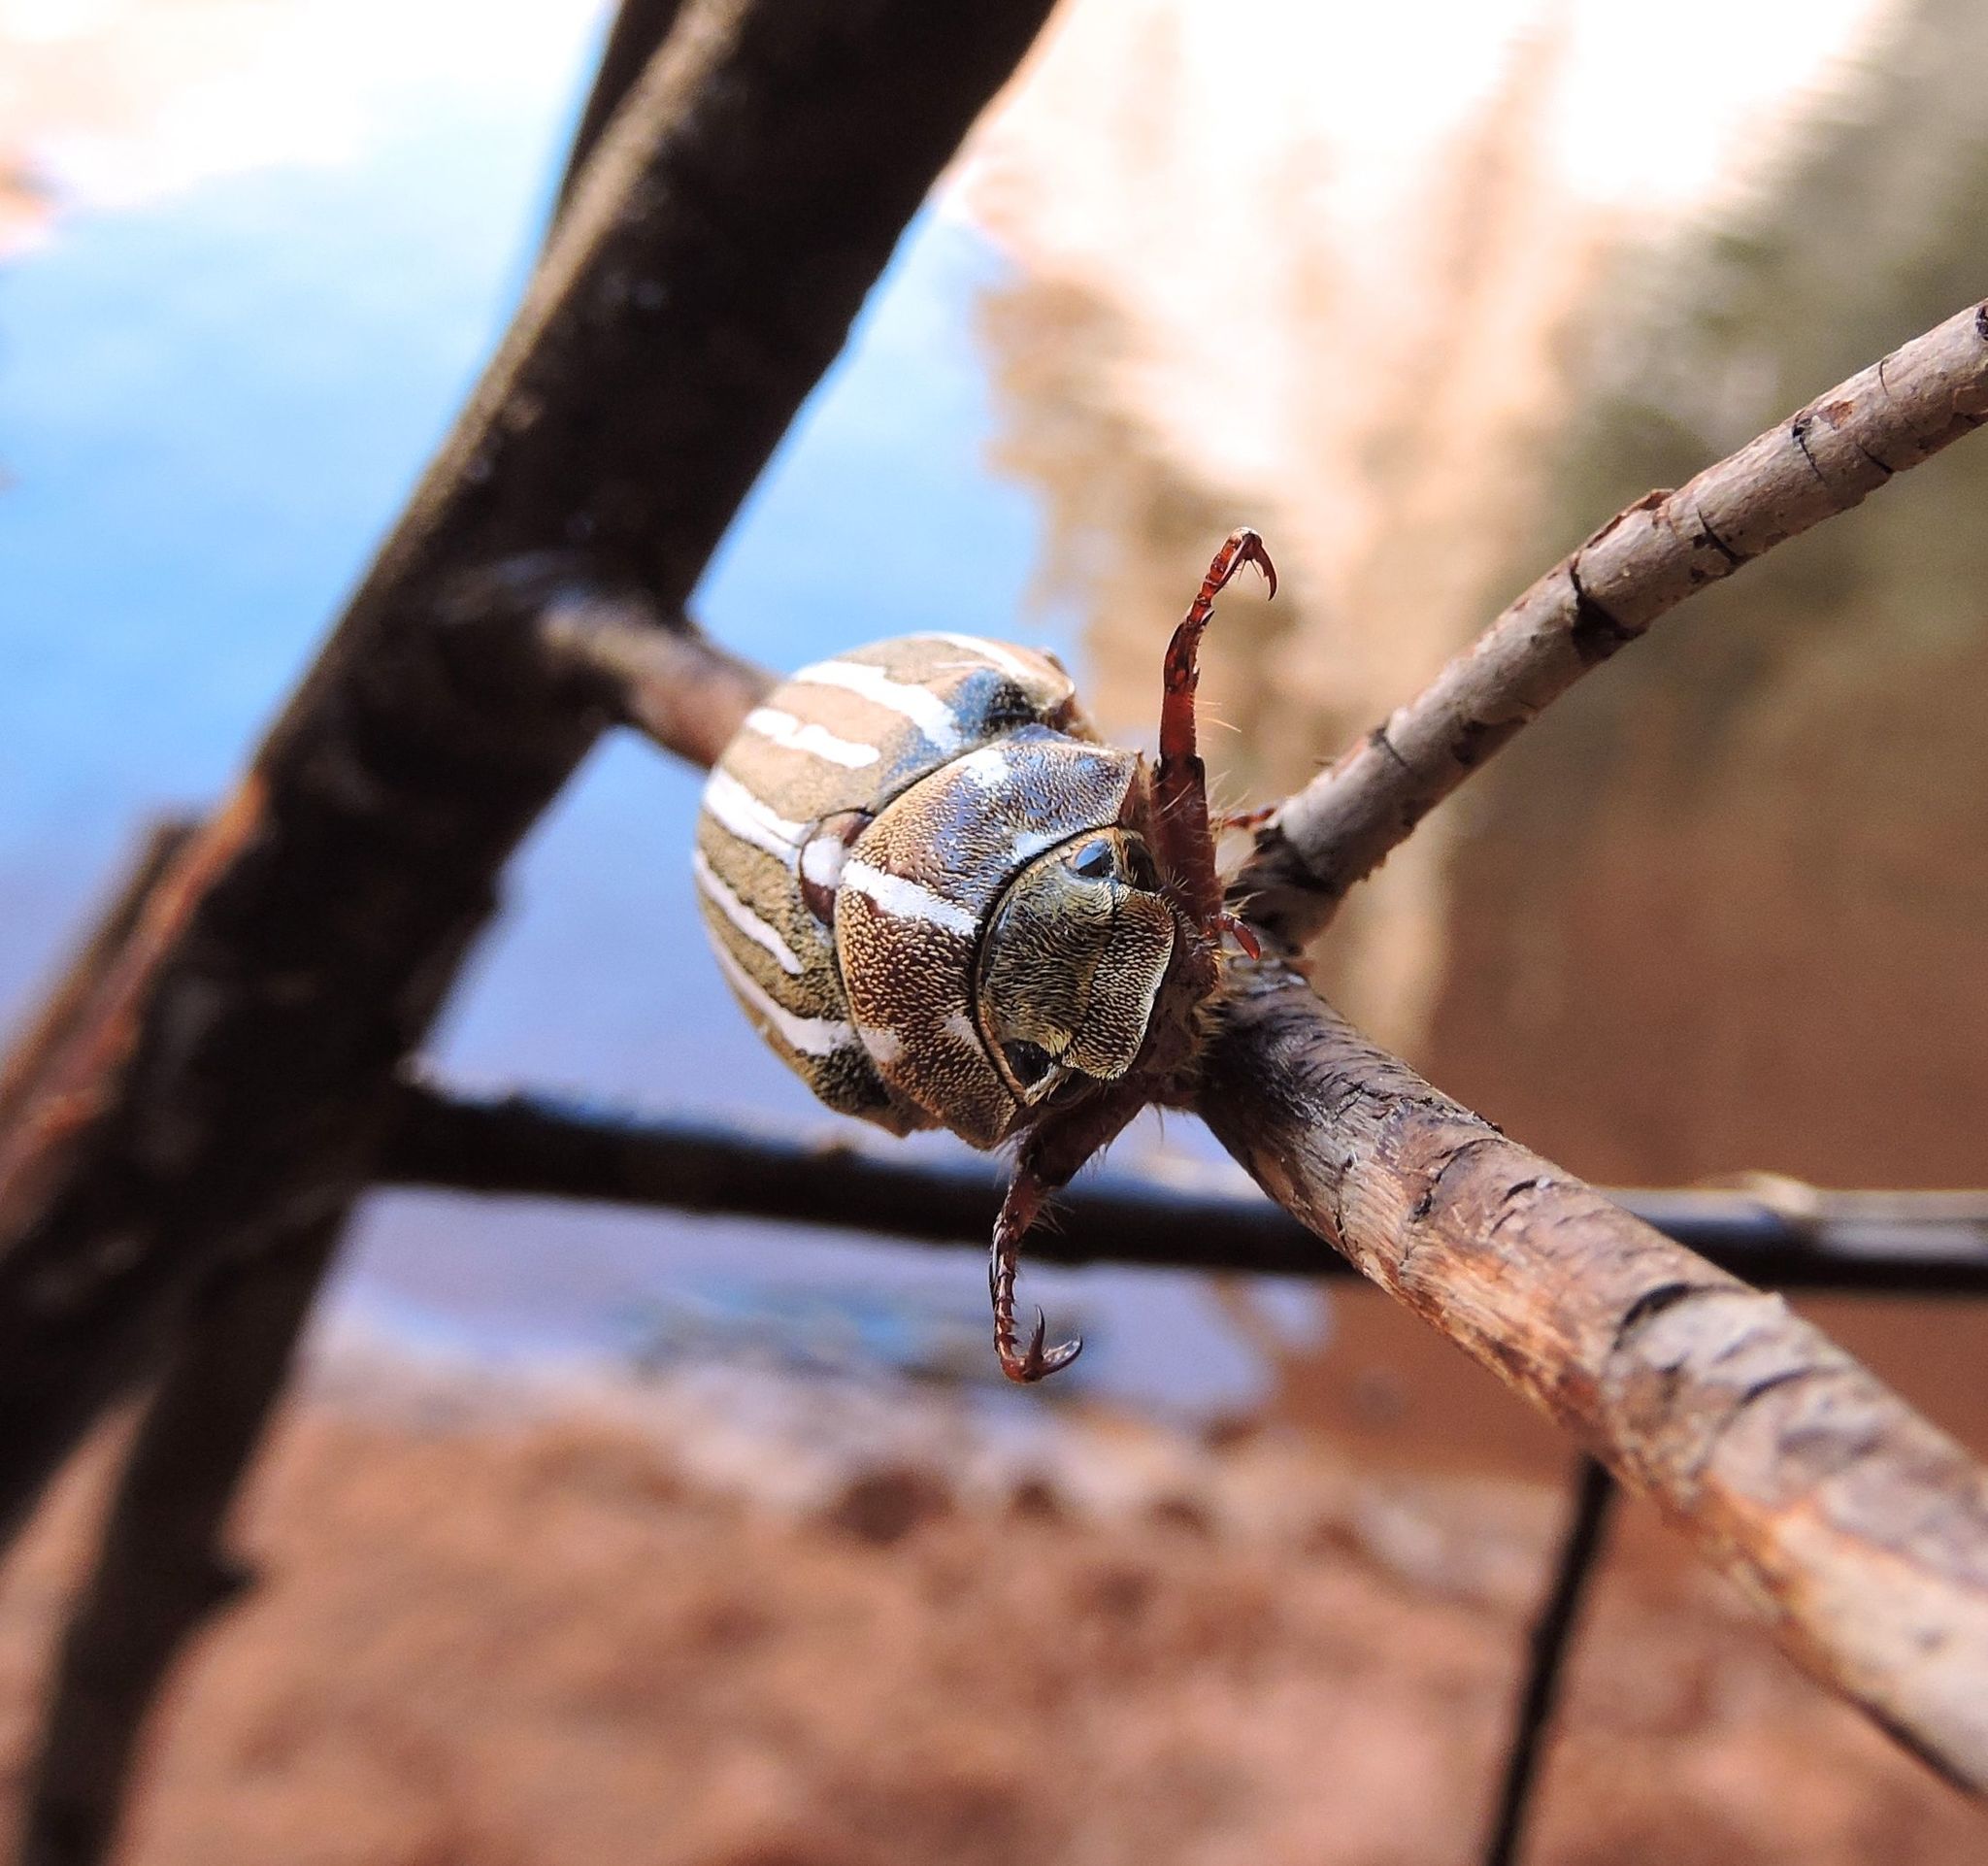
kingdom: Animalia
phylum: Arthropoda
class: Insecta
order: Coleoptera
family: Scarabaeidae
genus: Polyphylla
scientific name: Polyphylla decemlineata
